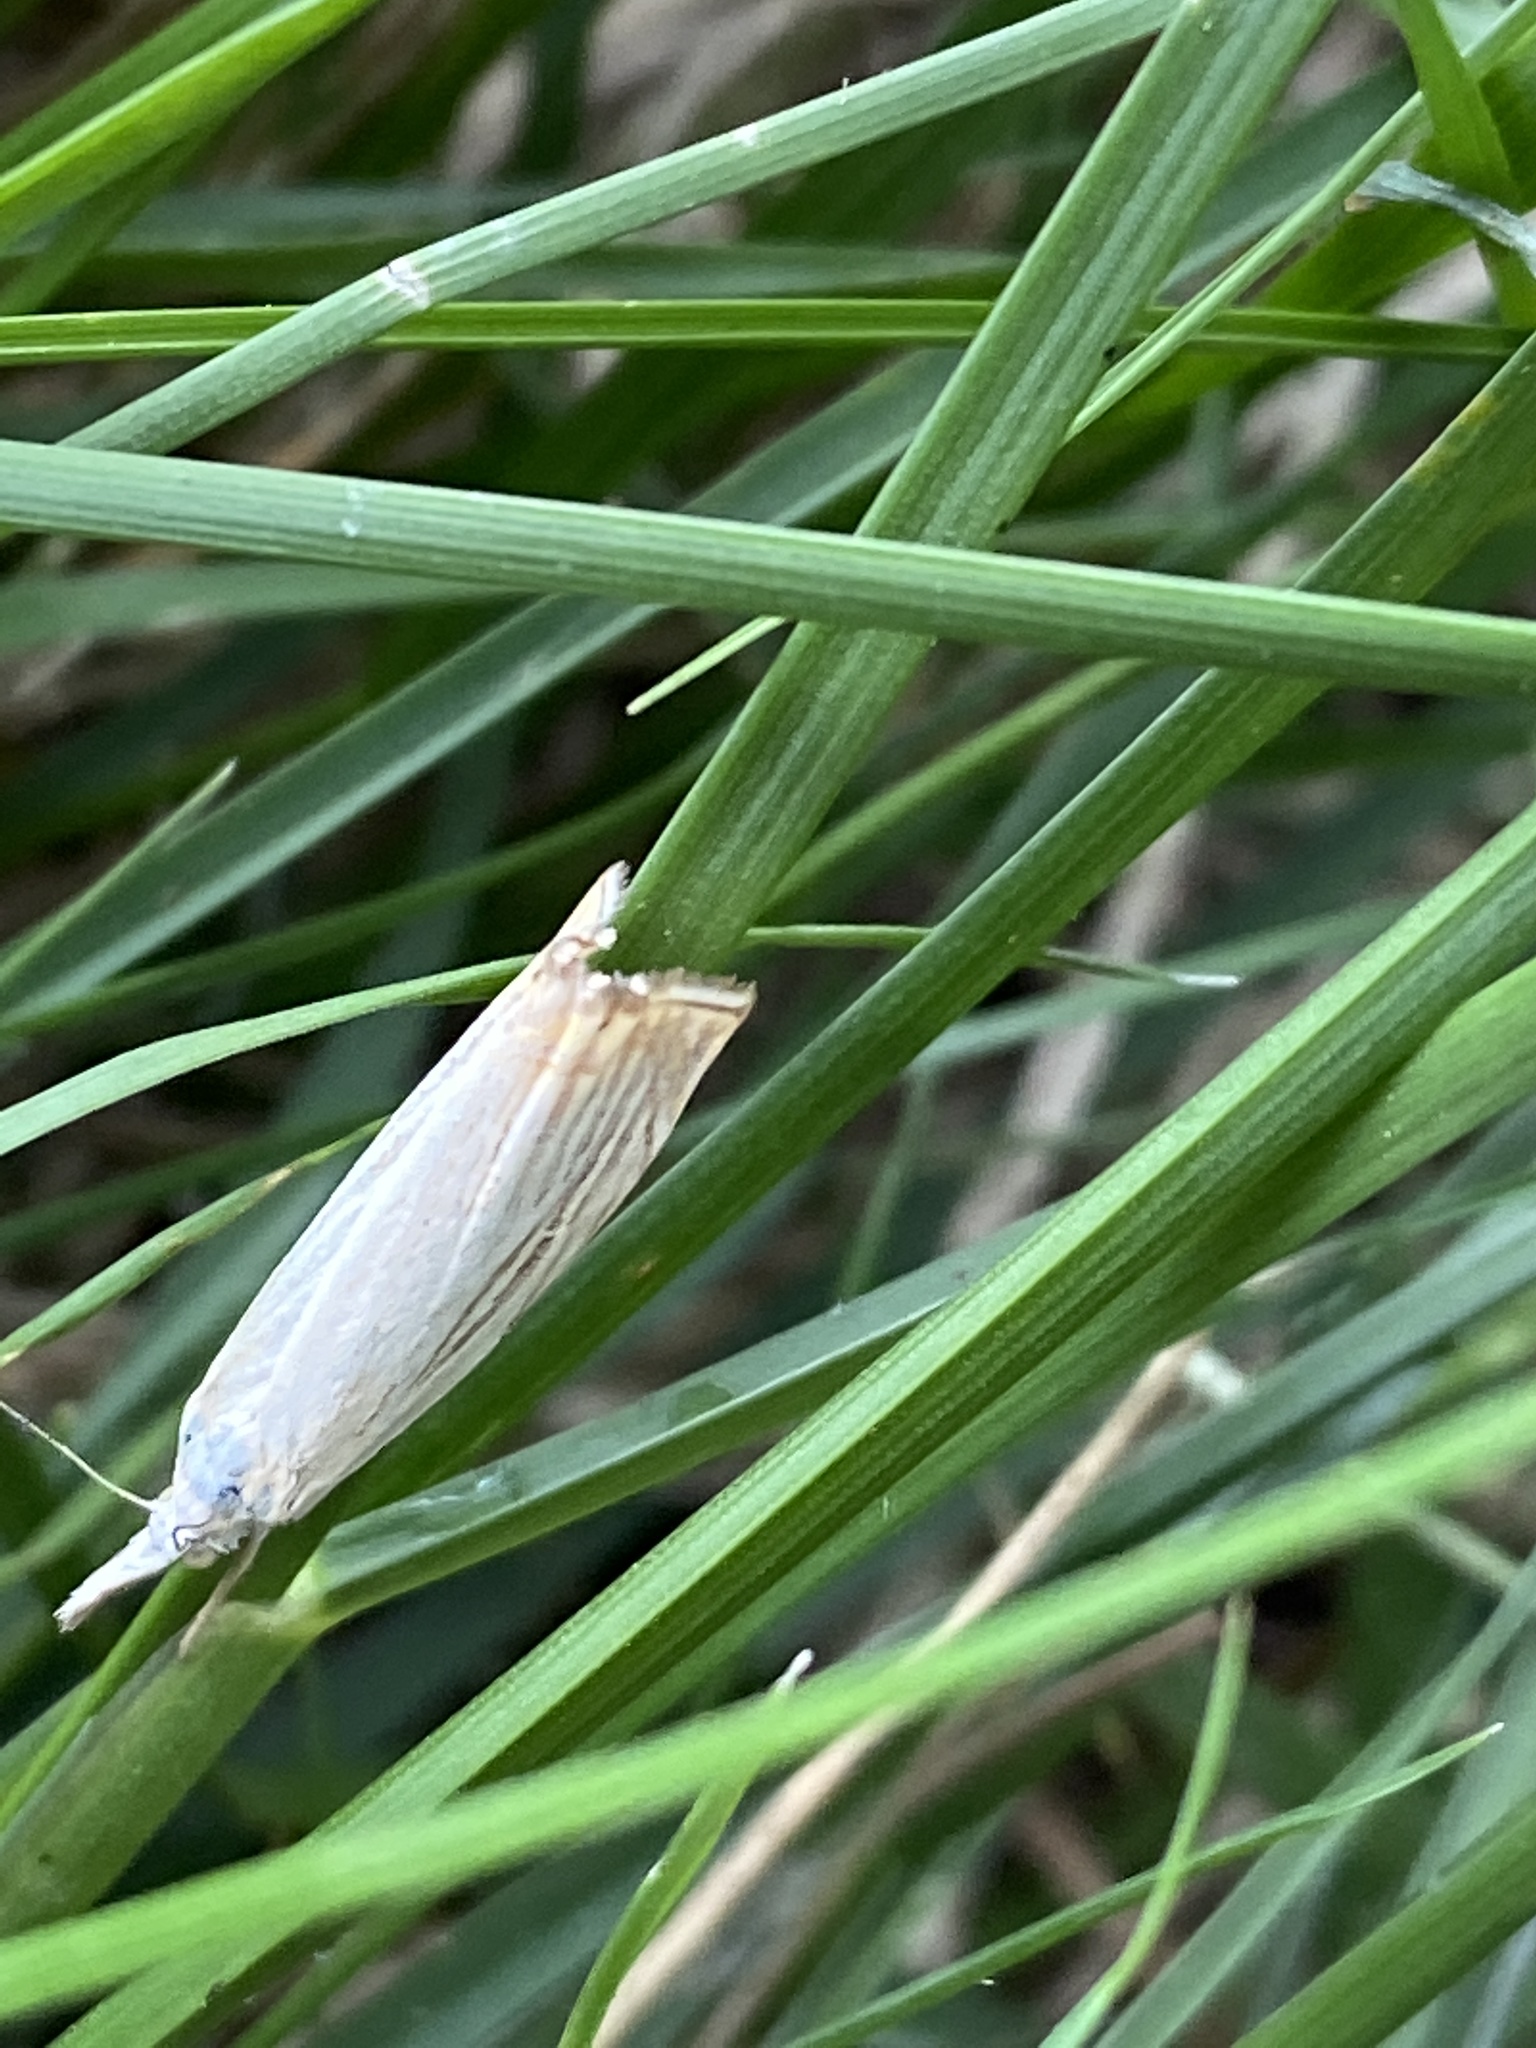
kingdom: Animalia
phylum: Arthropoda
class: Insecta
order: Lepidoptera
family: Crambidae
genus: Chrysoteuchia
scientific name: Chrysoteuchia culmella
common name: Garden grass-veneer
